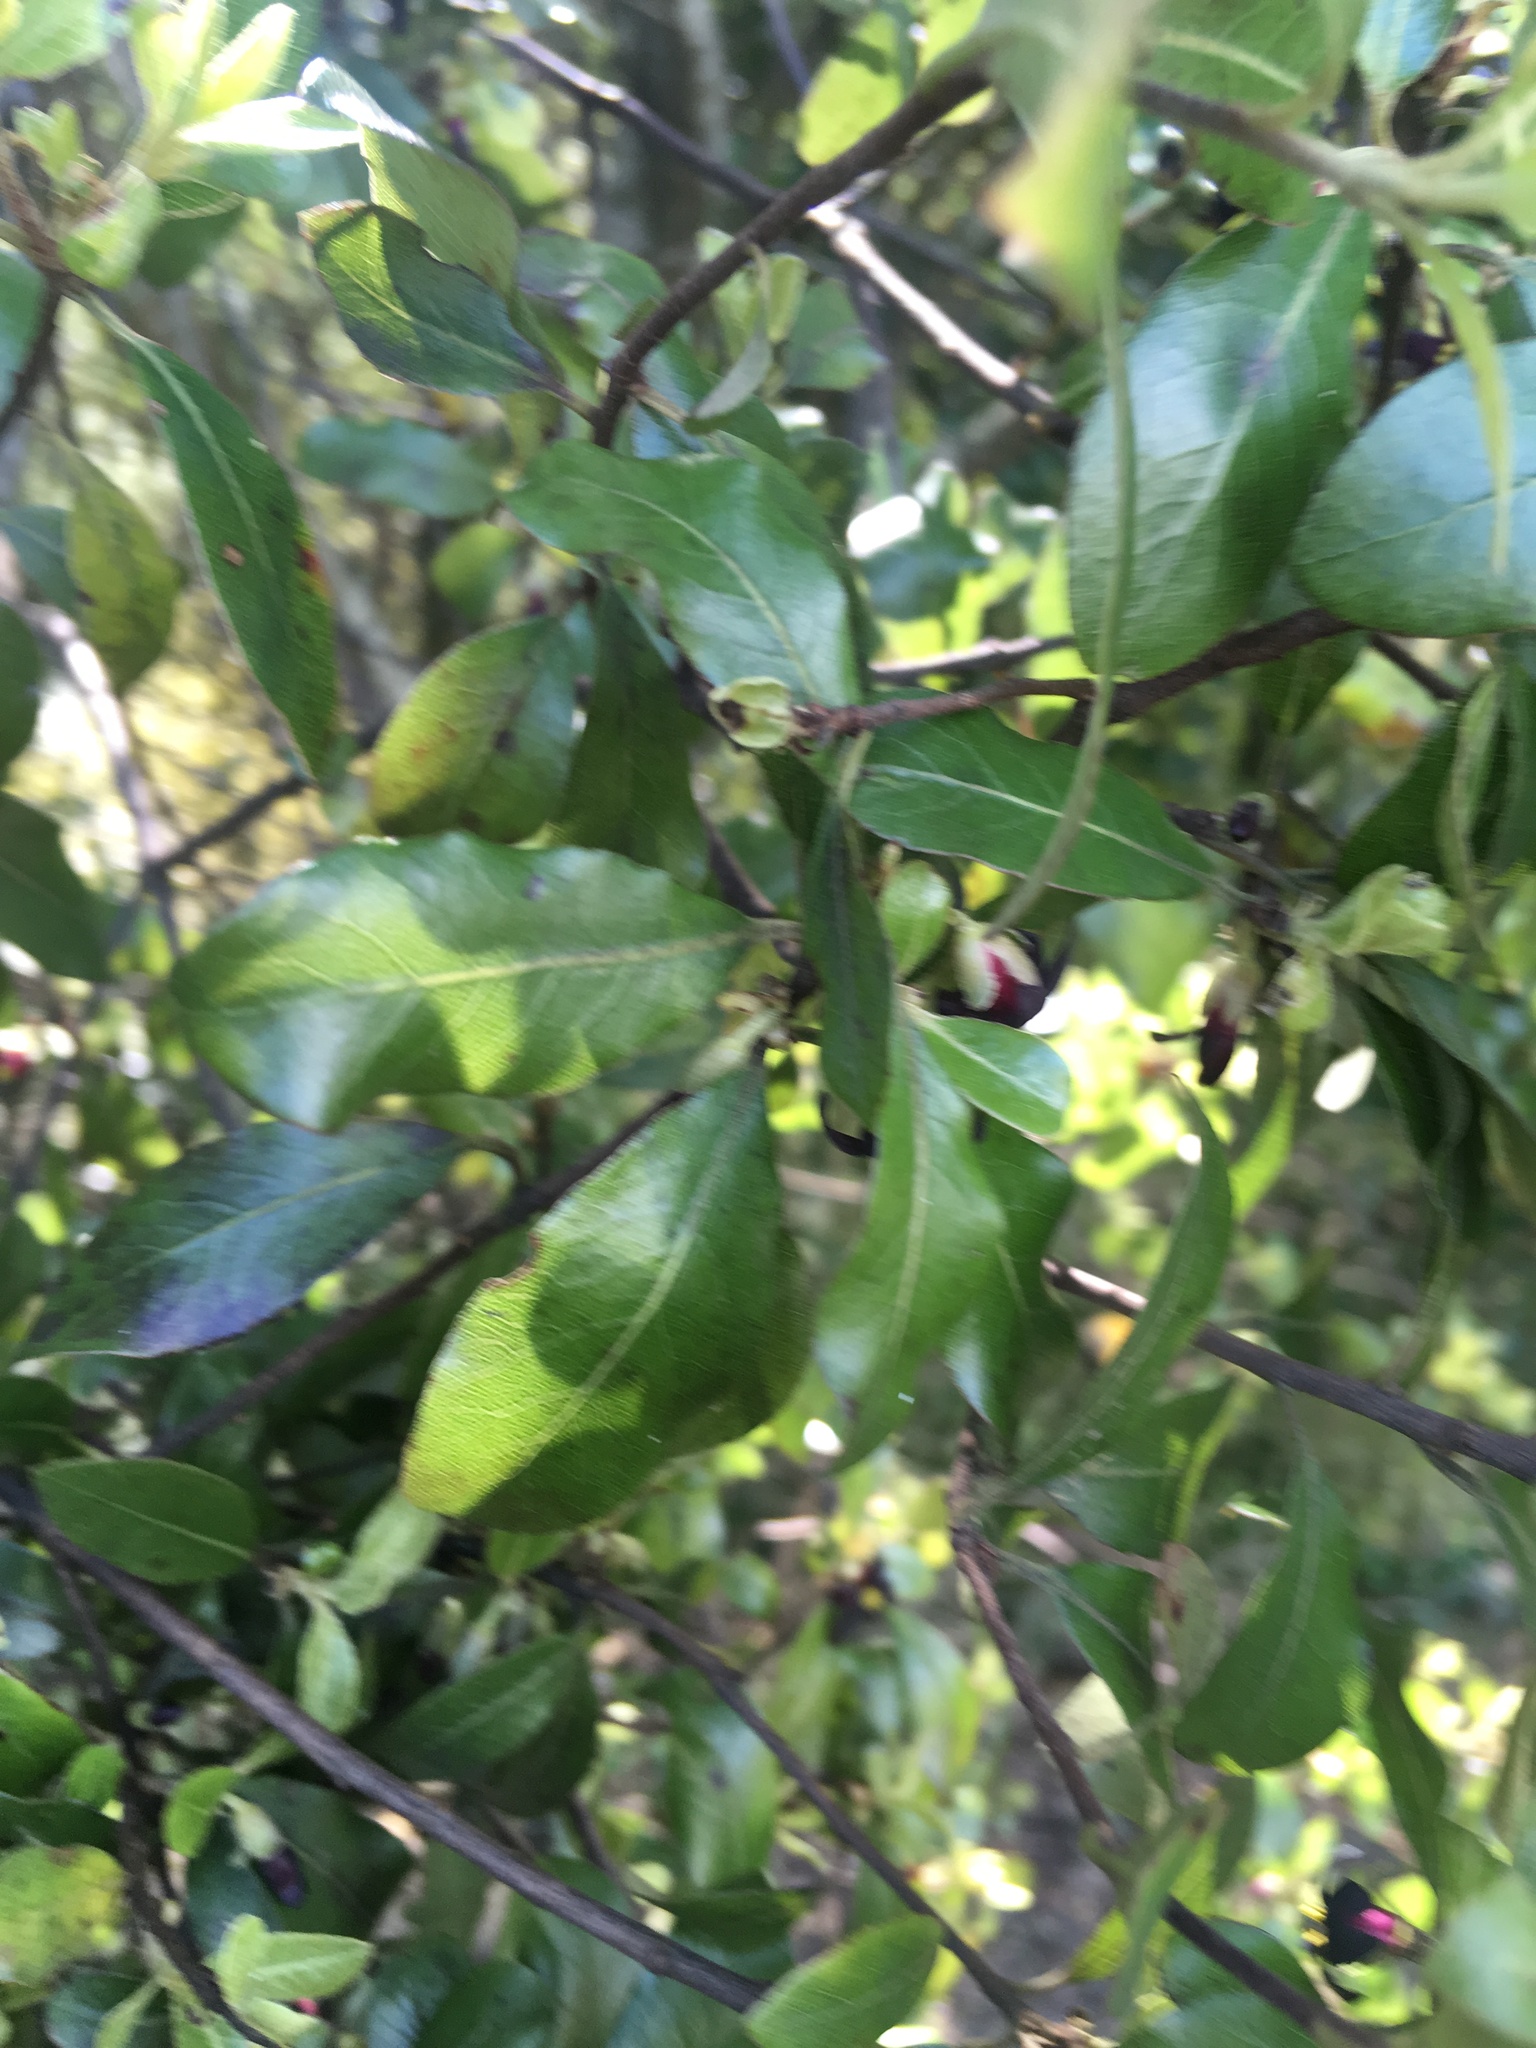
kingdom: Plantae
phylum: Tracheophyta
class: Magnoliopsida
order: Apiales
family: Pittosporaceae
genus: Pittosporum
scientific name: Pittosporum tenuifolium
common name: Kohuhu
